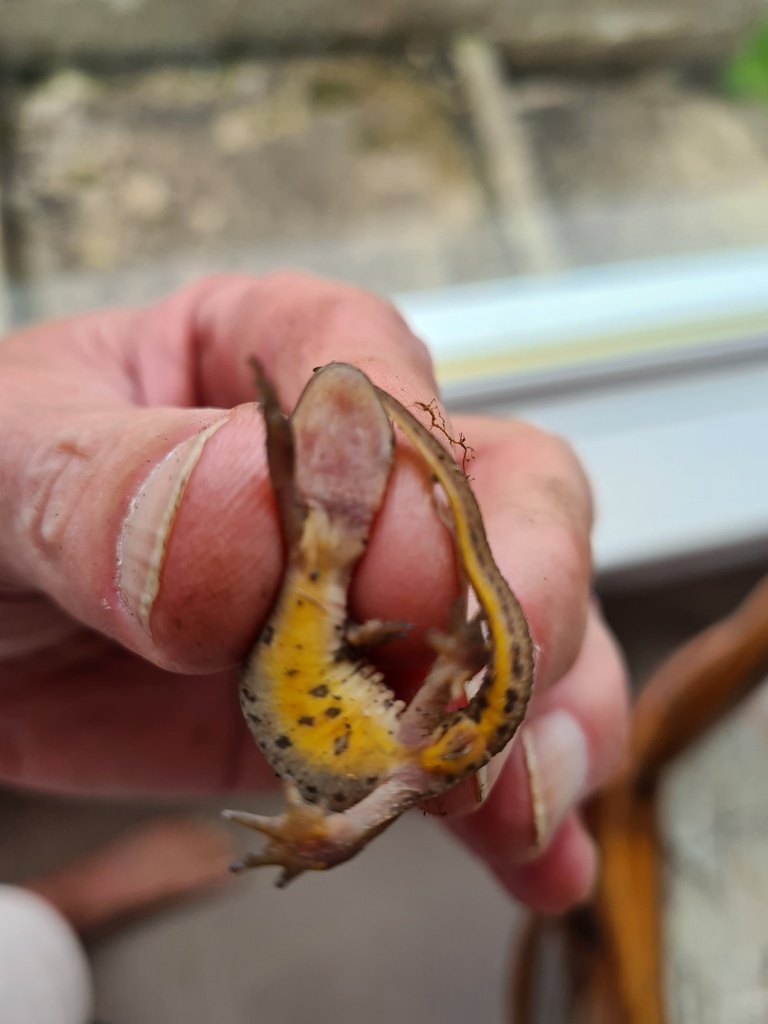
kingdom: Animalia
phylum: Chordata
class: Amphibia
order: Caudata
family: Salamandridae
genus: Lissotriton
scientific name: Lissotriton helveticus
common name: Palmate newt
